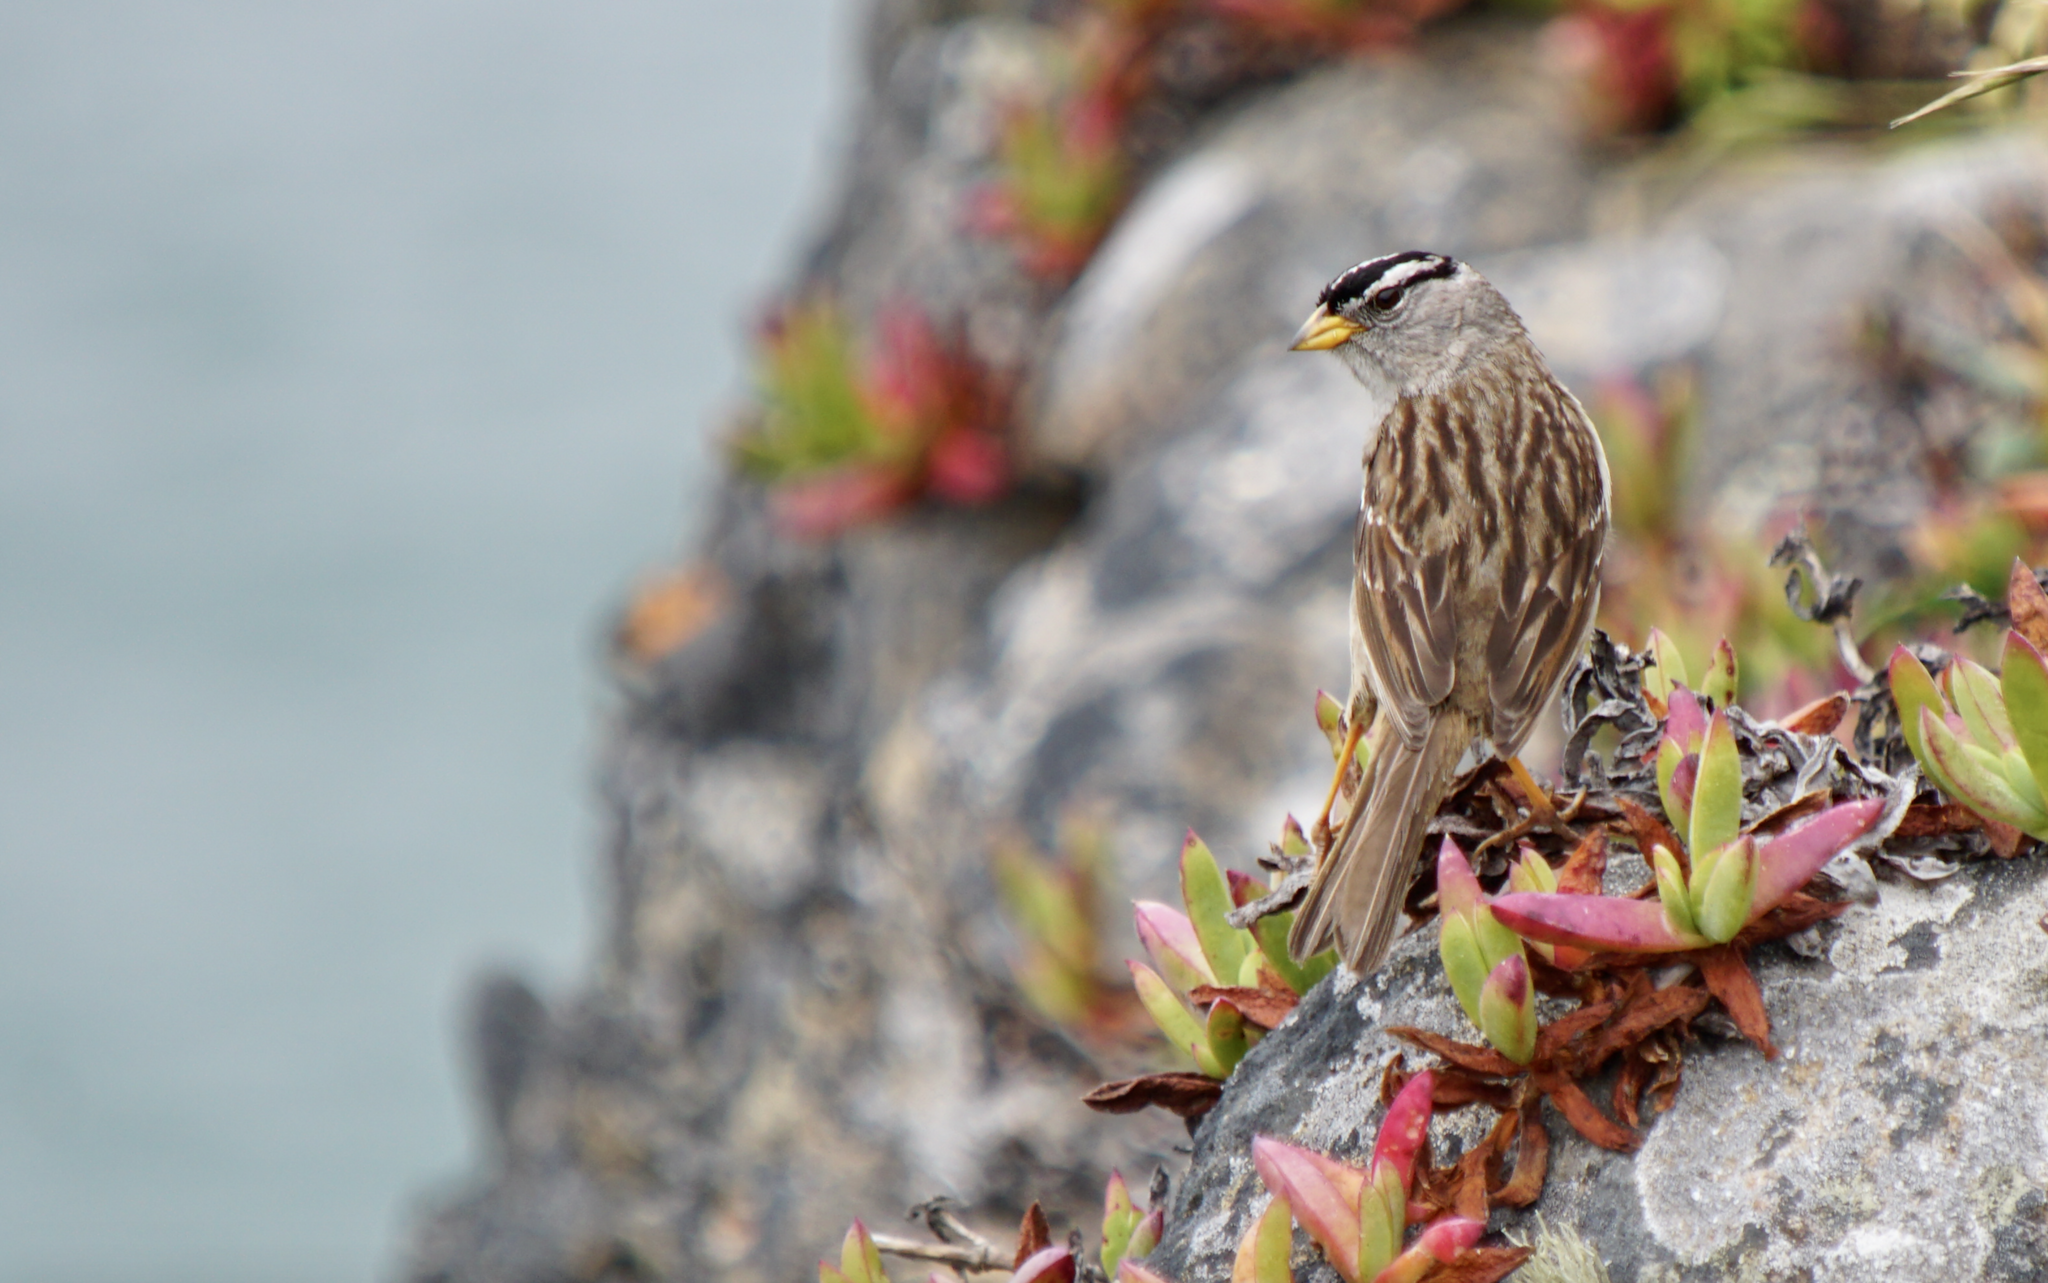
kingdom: Animalia
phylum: Chordata
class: Aves
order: Passeriformes
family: Passerellidae
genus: Zonotrichia
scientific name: Zonotrichia leucophrys
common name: White-crowned sparrow
